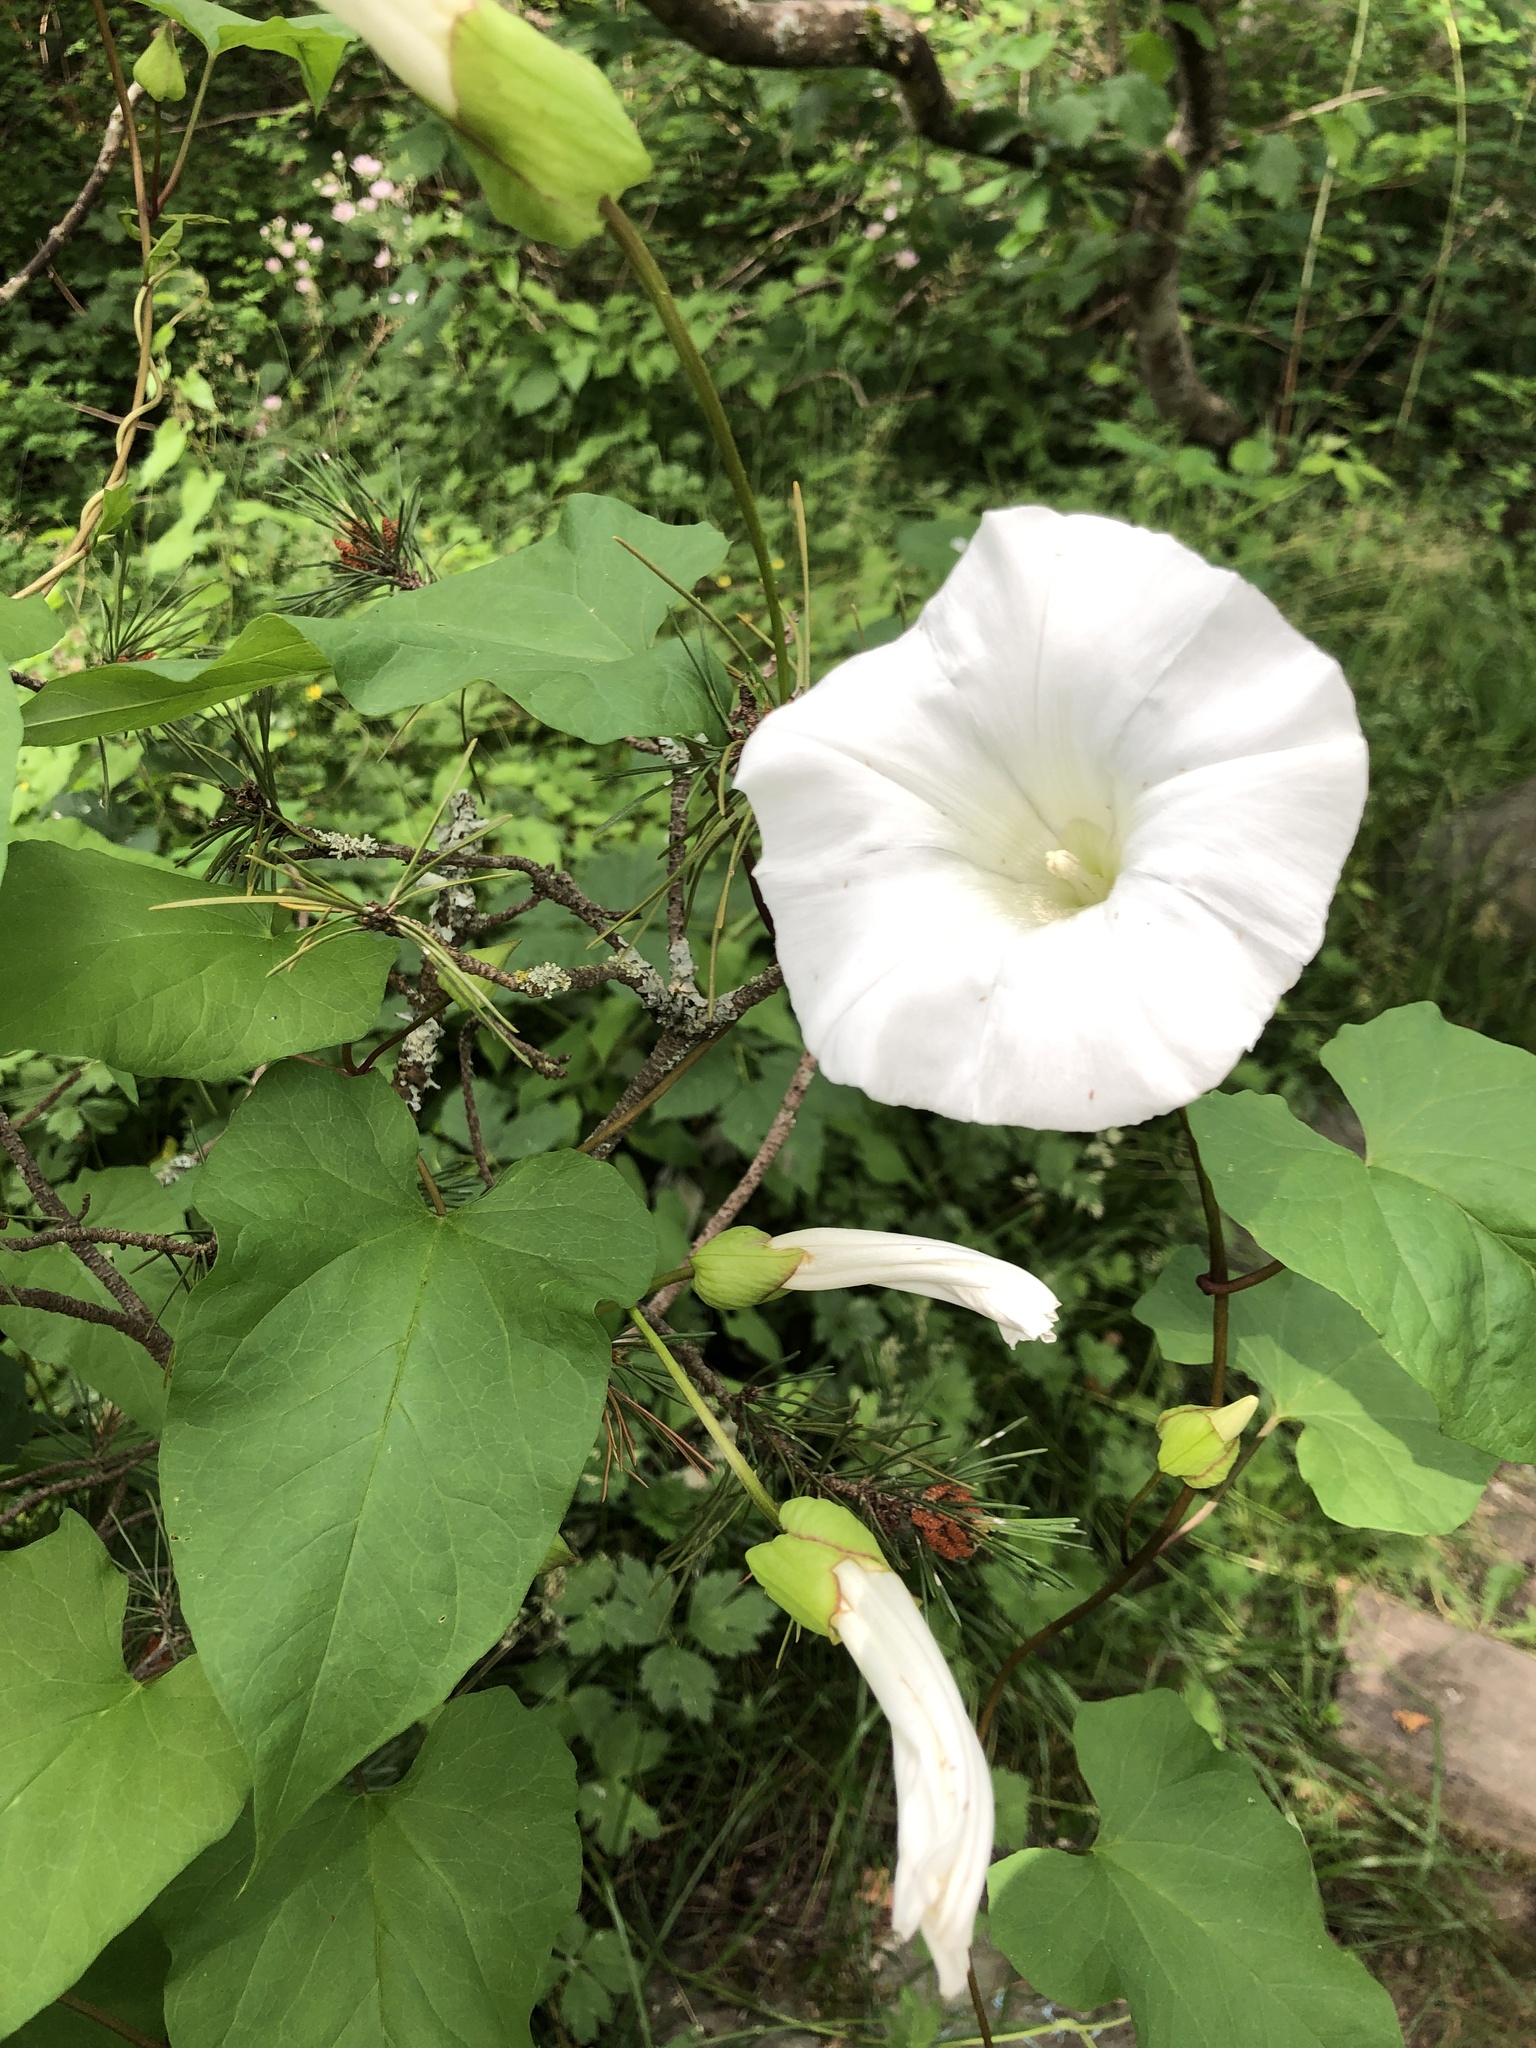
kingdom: Plantae
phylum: Tracheophyta
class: Magnoliopsida
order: Solanales
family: Convolvulaceae
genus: Calystegia
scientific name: Calystegia silvatica
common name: Large bindweed
